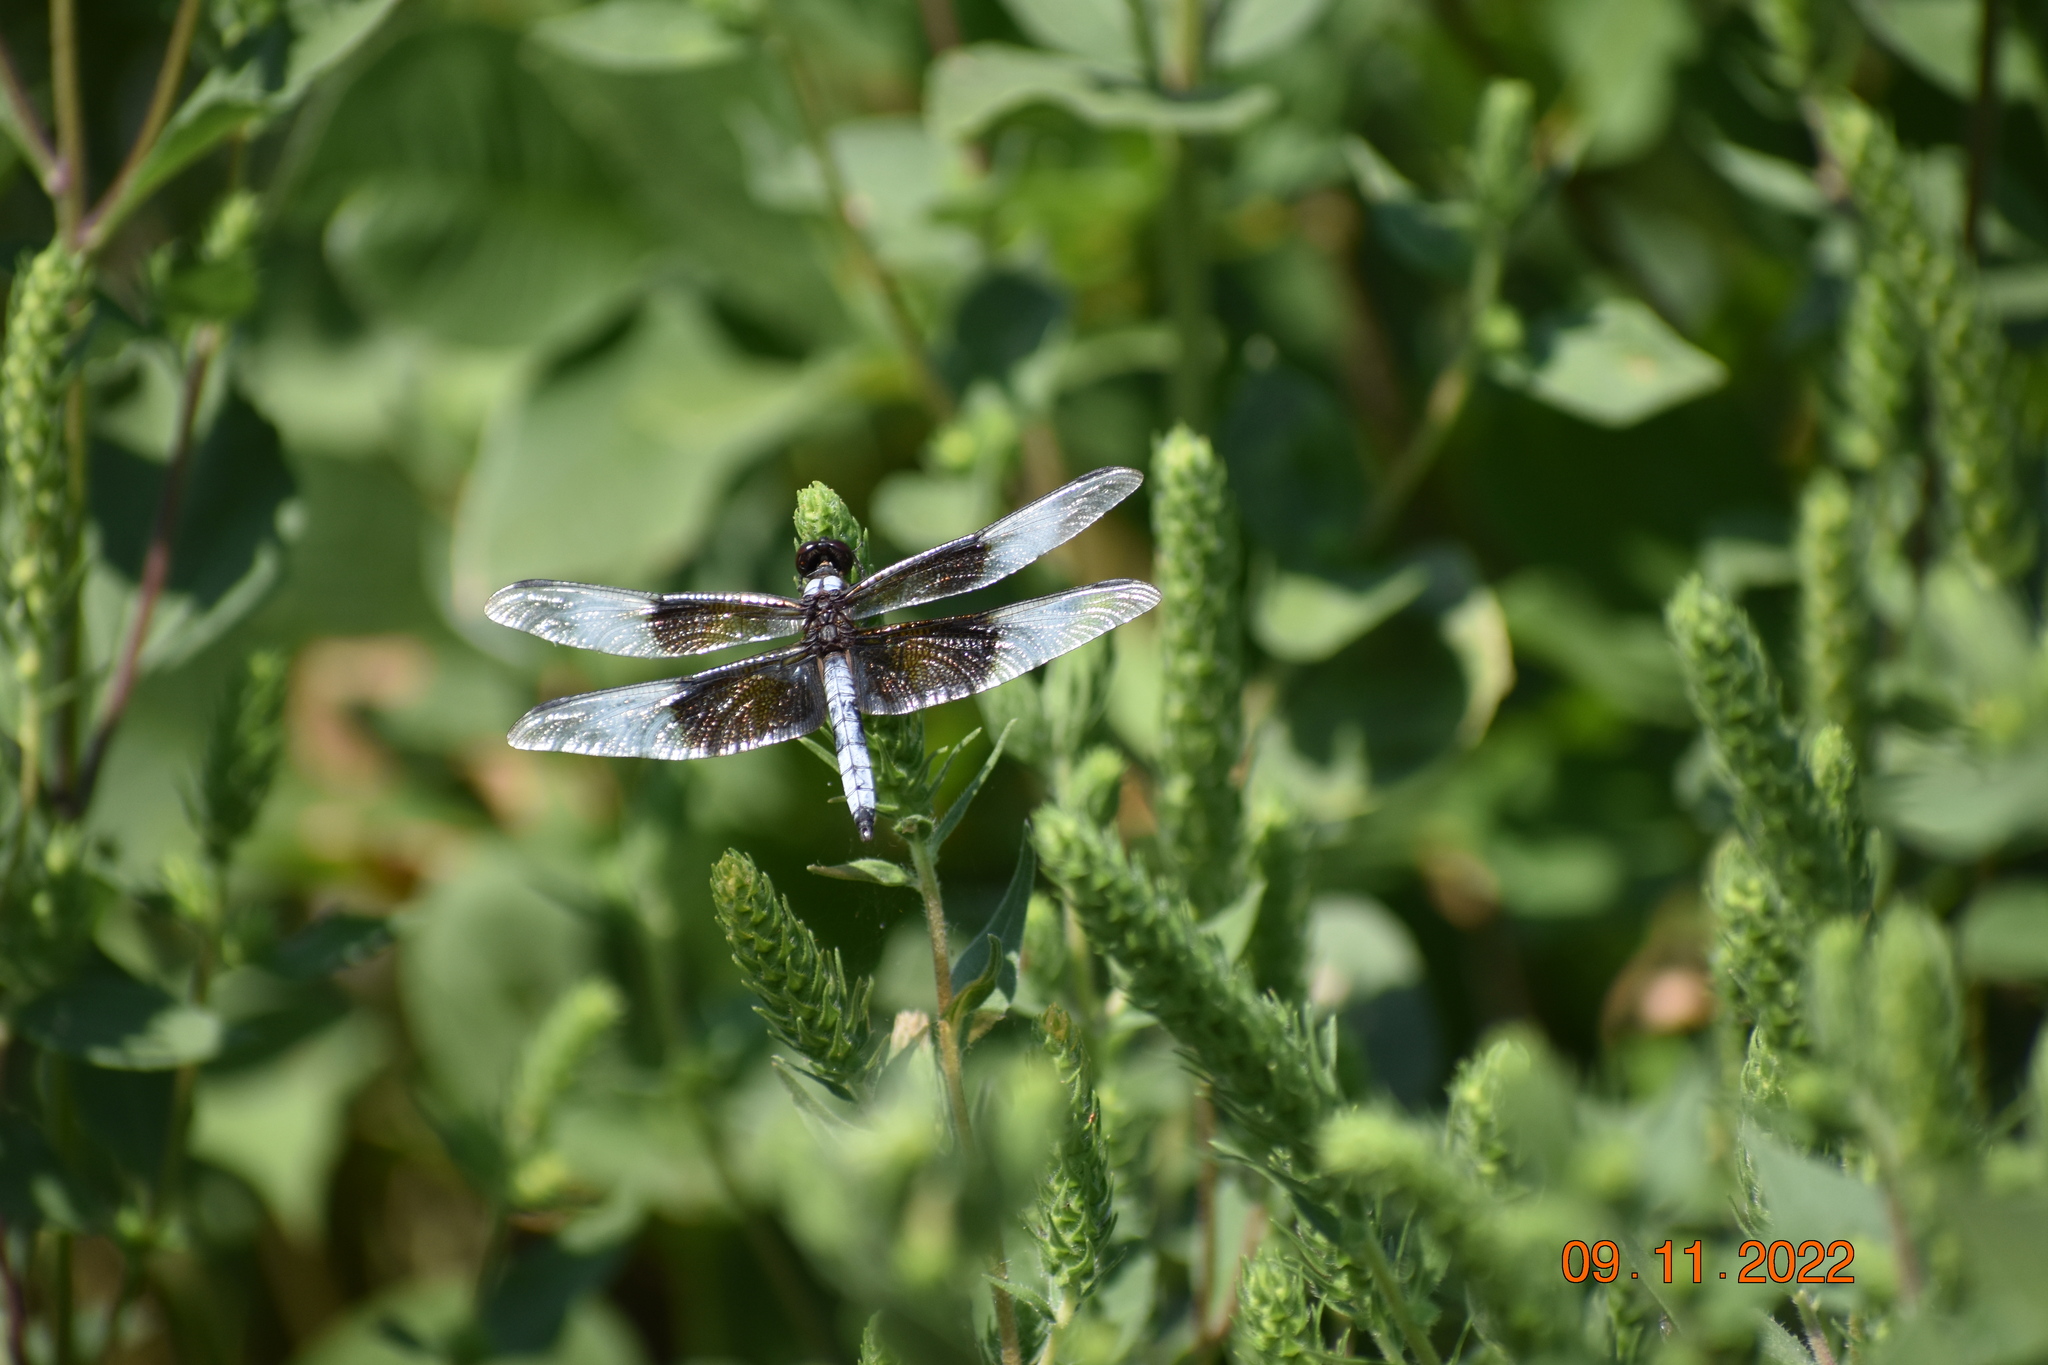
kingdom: Animalia
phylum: Arthropoda
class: Insecta
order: Odonata
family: Libellulidae
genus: Libellula
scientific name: Libellula luctuosa
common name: Widow skimmer
